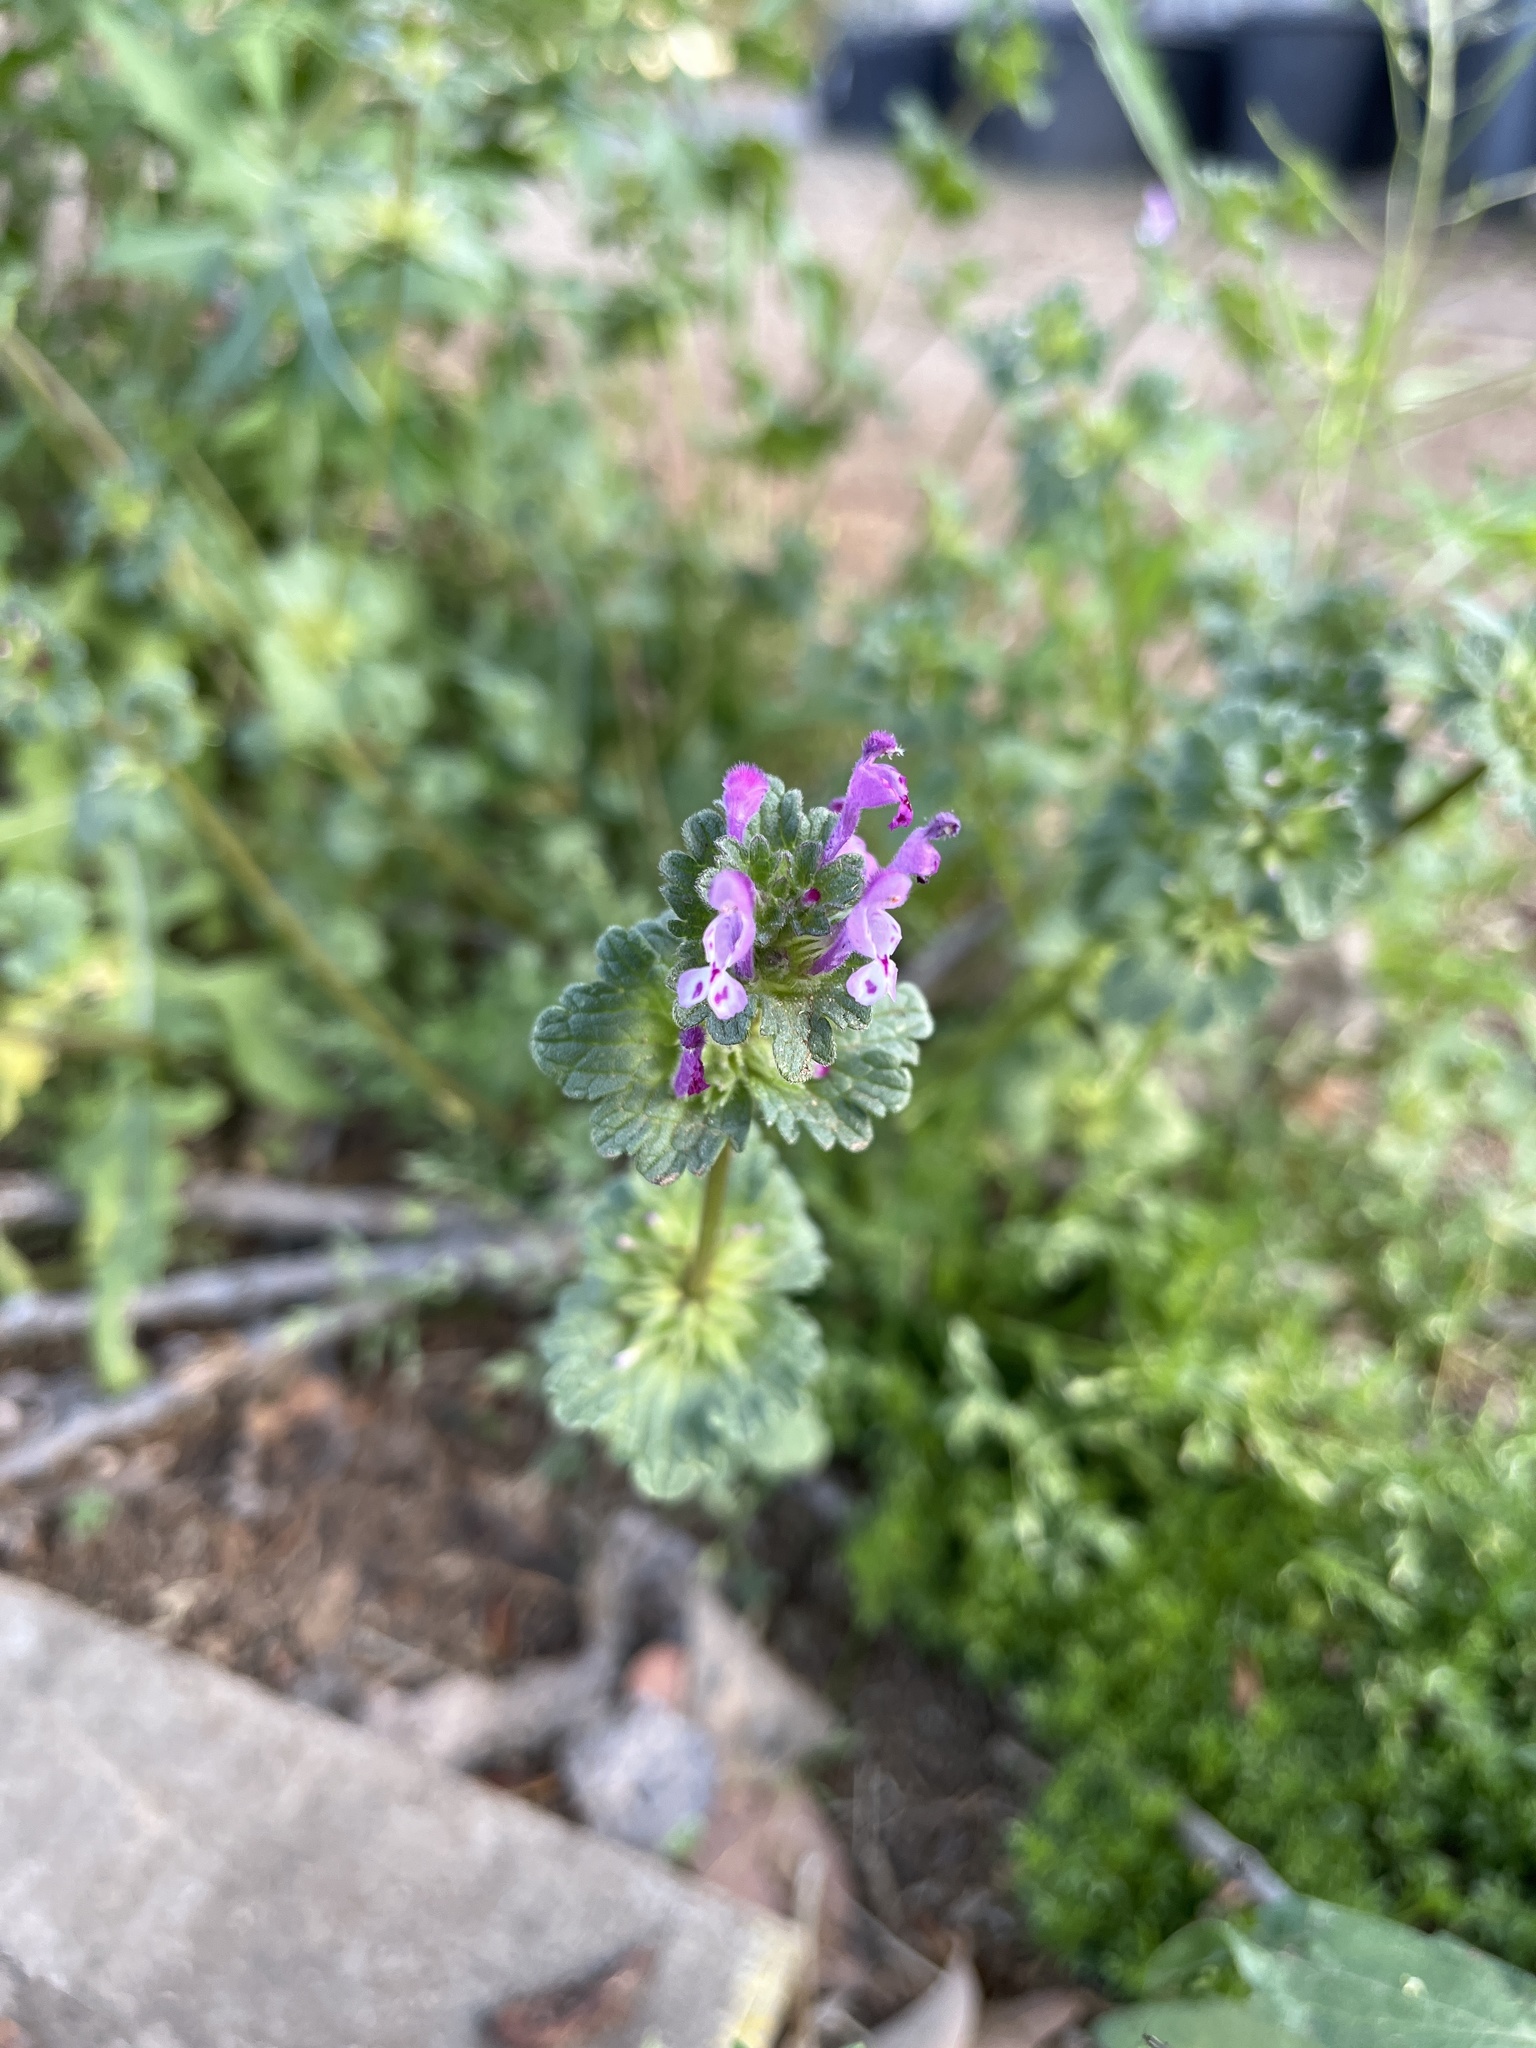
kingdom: Plantae
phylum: Tracheophyta
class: Magnoliopsida
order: Lamiales
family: Lamiaceae
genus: Lamium
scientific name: Lamium amplexicaule
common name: Henbit dead-nettle
